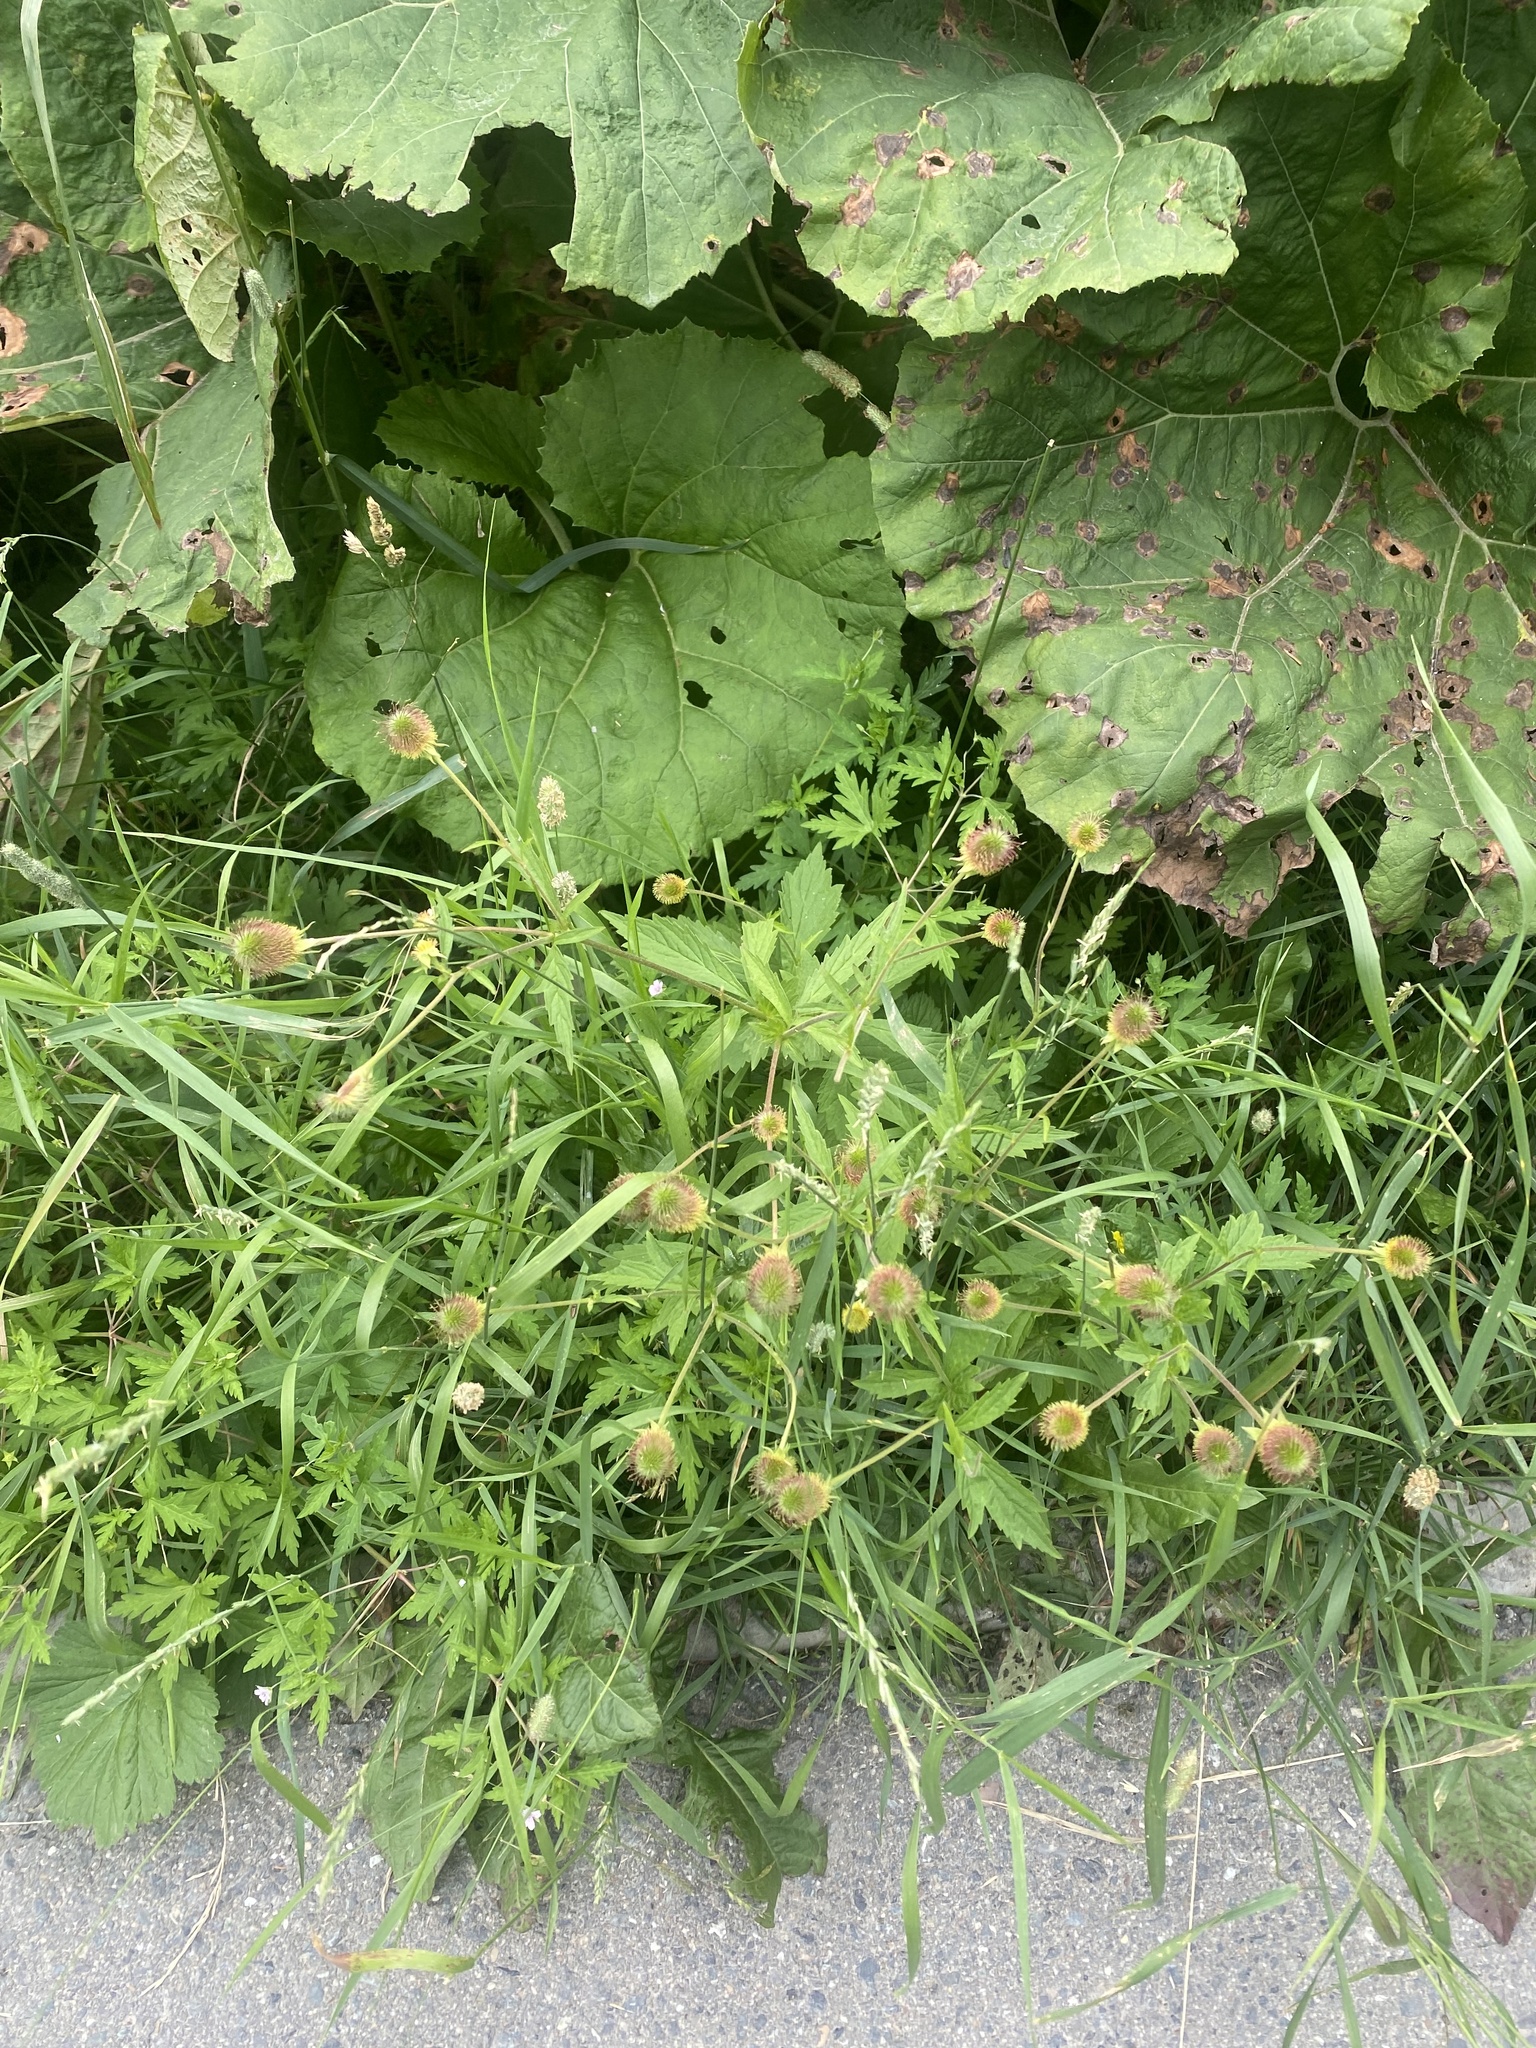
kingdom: Plantae
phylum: Tracheophyta
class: Magnoliopsida
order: Rosales
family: Rosaceae
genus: Geum
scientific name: Geum aleppicum
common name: Yellow avens
